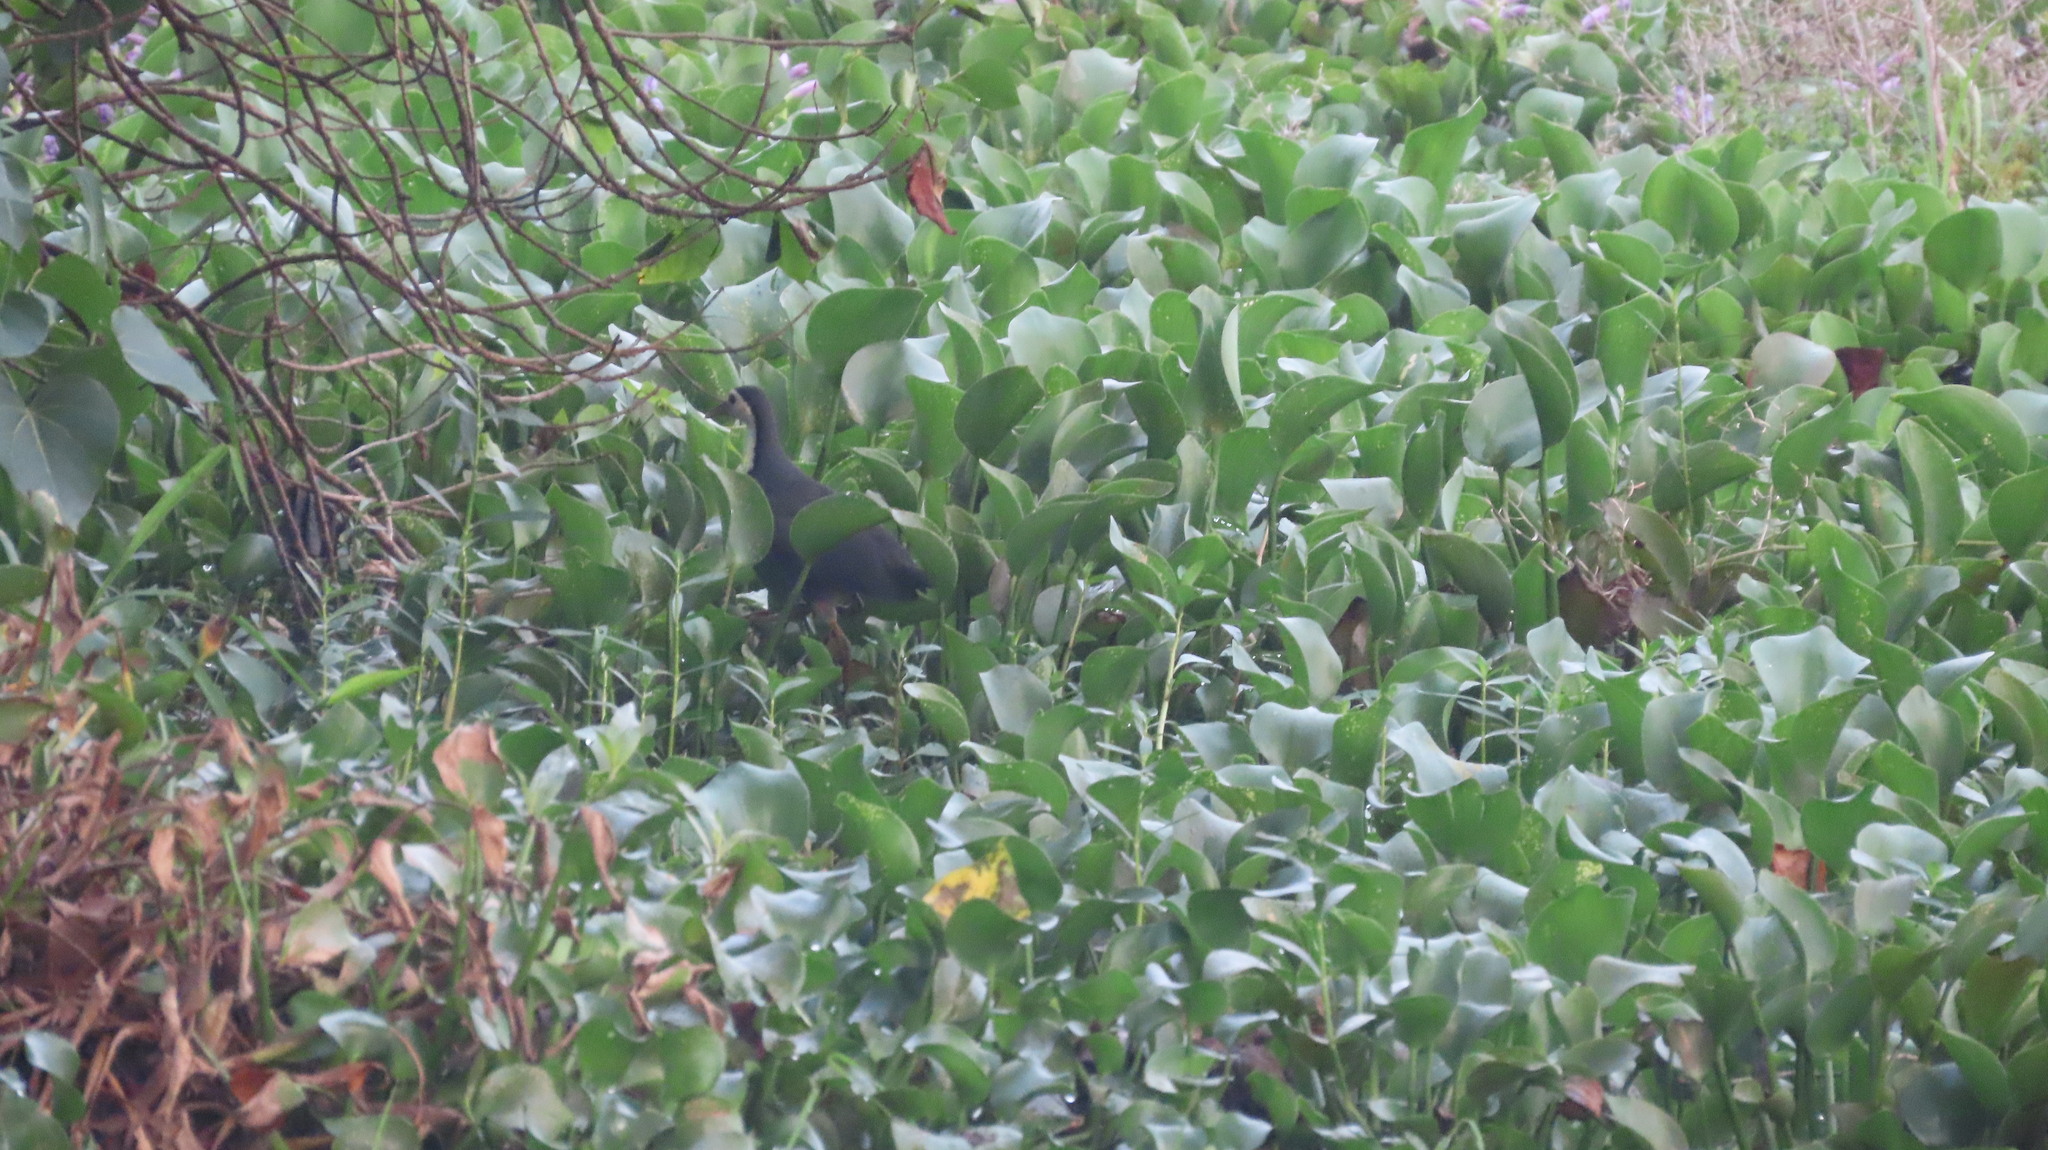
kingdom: Animalia
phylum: Chordata
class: Aves
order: Gruiformes
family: Rallidae
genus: Amaurornis
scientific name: Amaurornis phoenicurus
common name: White-breasted waterhen
